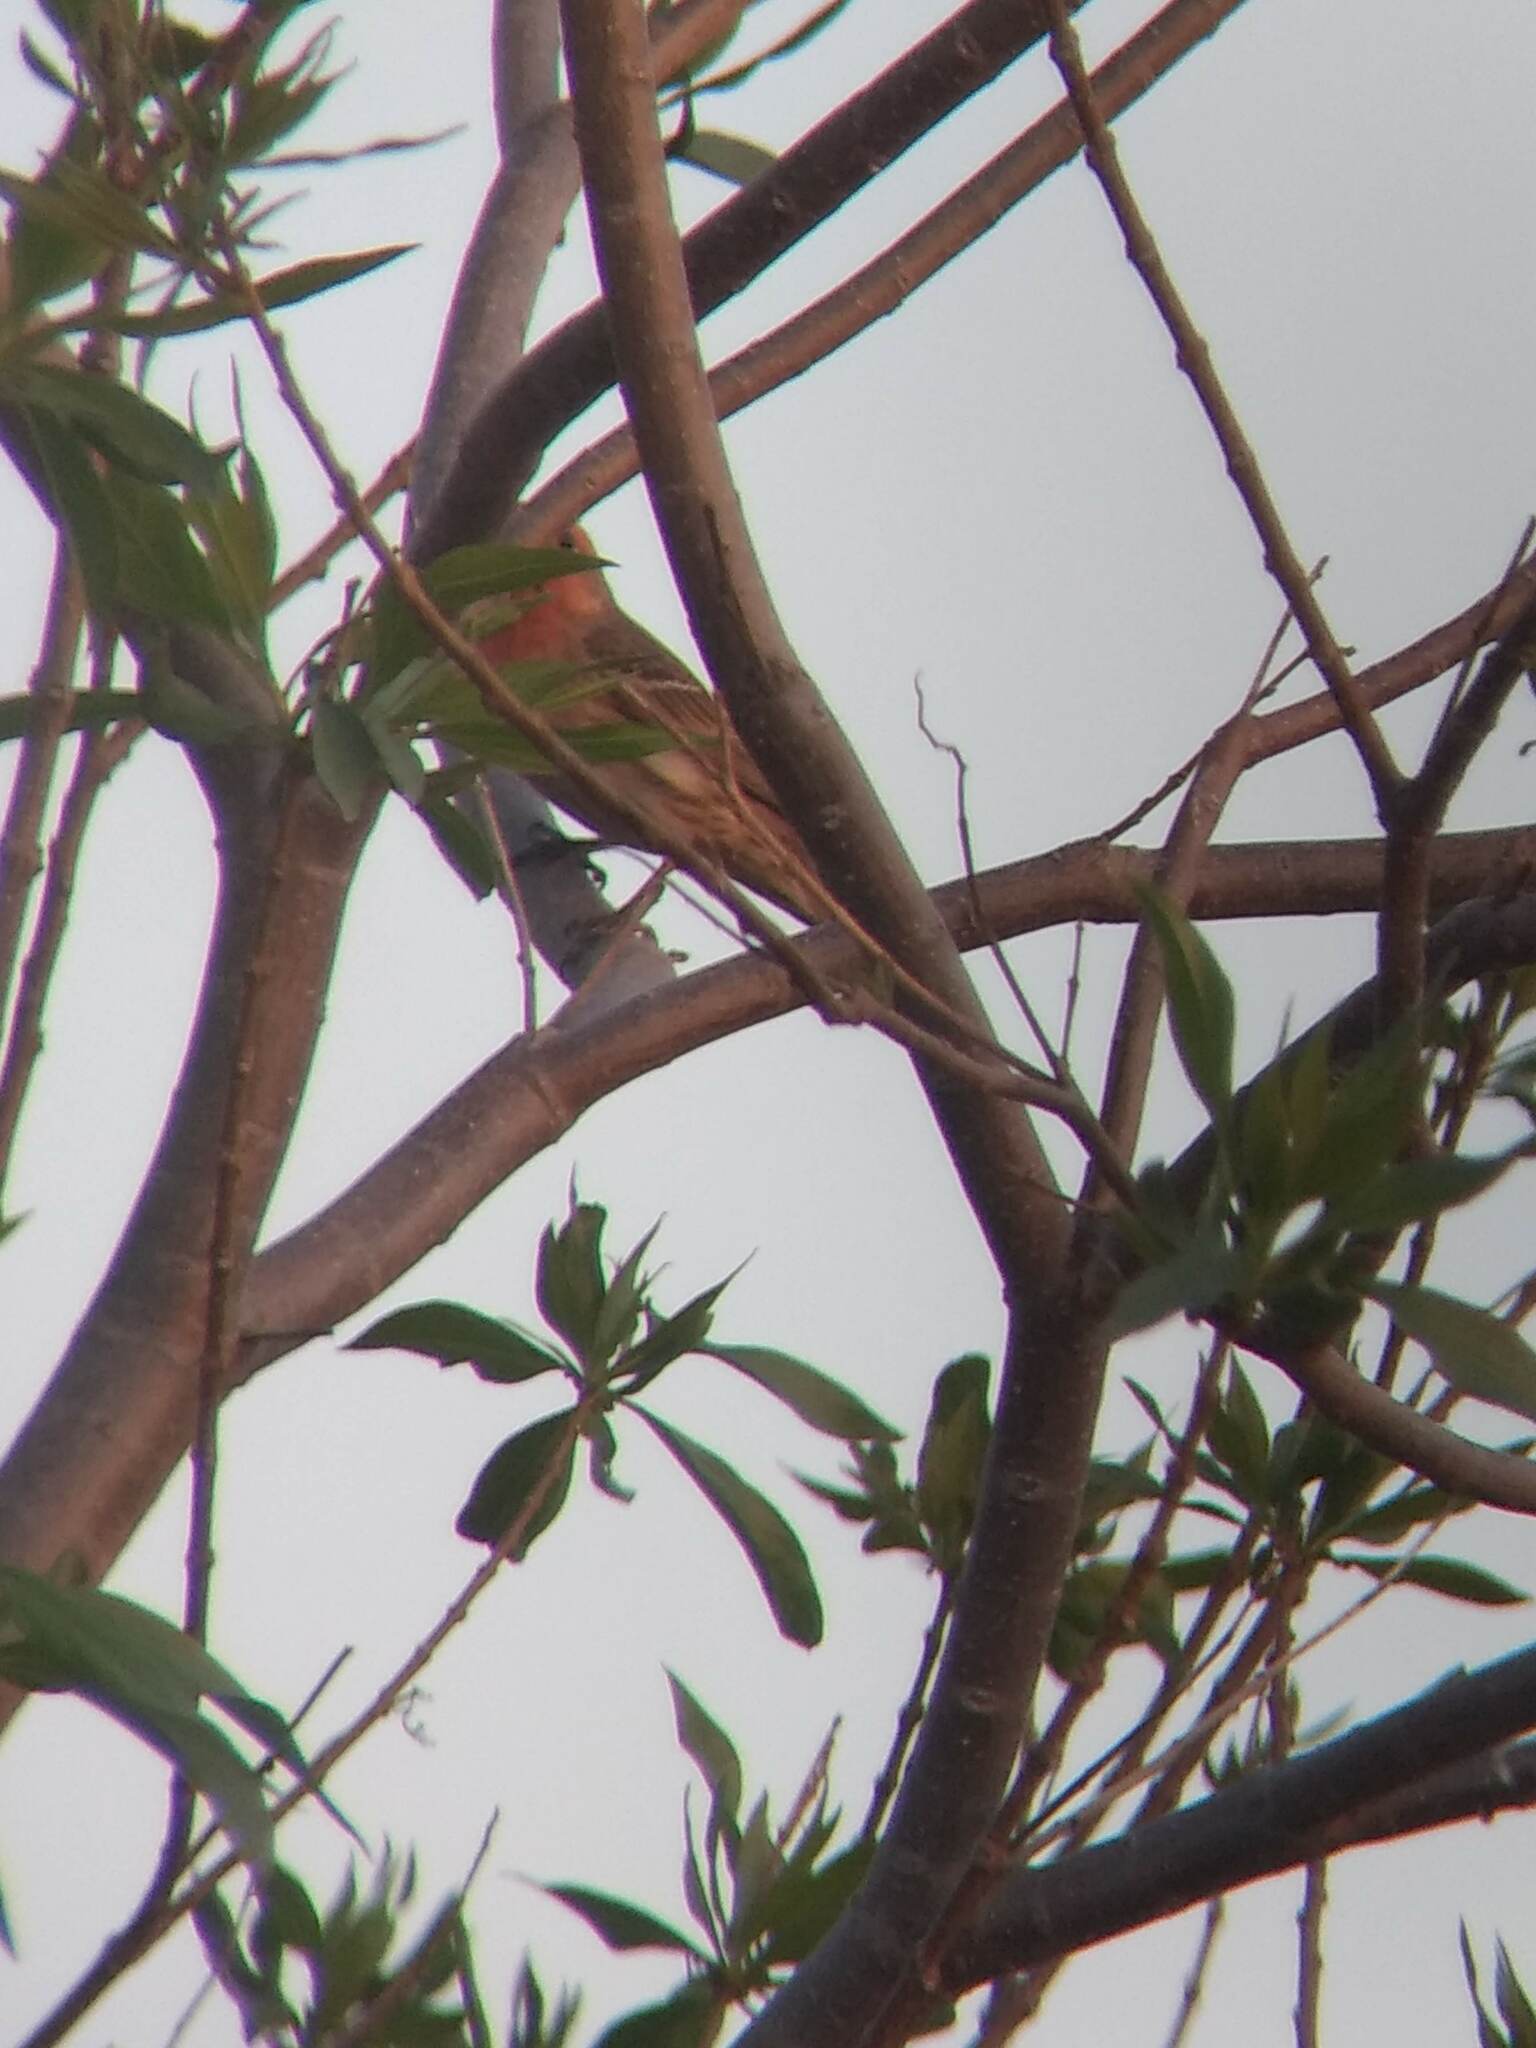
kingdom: Animalia
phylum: Chordata
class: Aves
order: Passeriformes
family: Fringillidae
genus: Haemorhous
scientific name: Haemorhous mexicanus
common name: House finch
